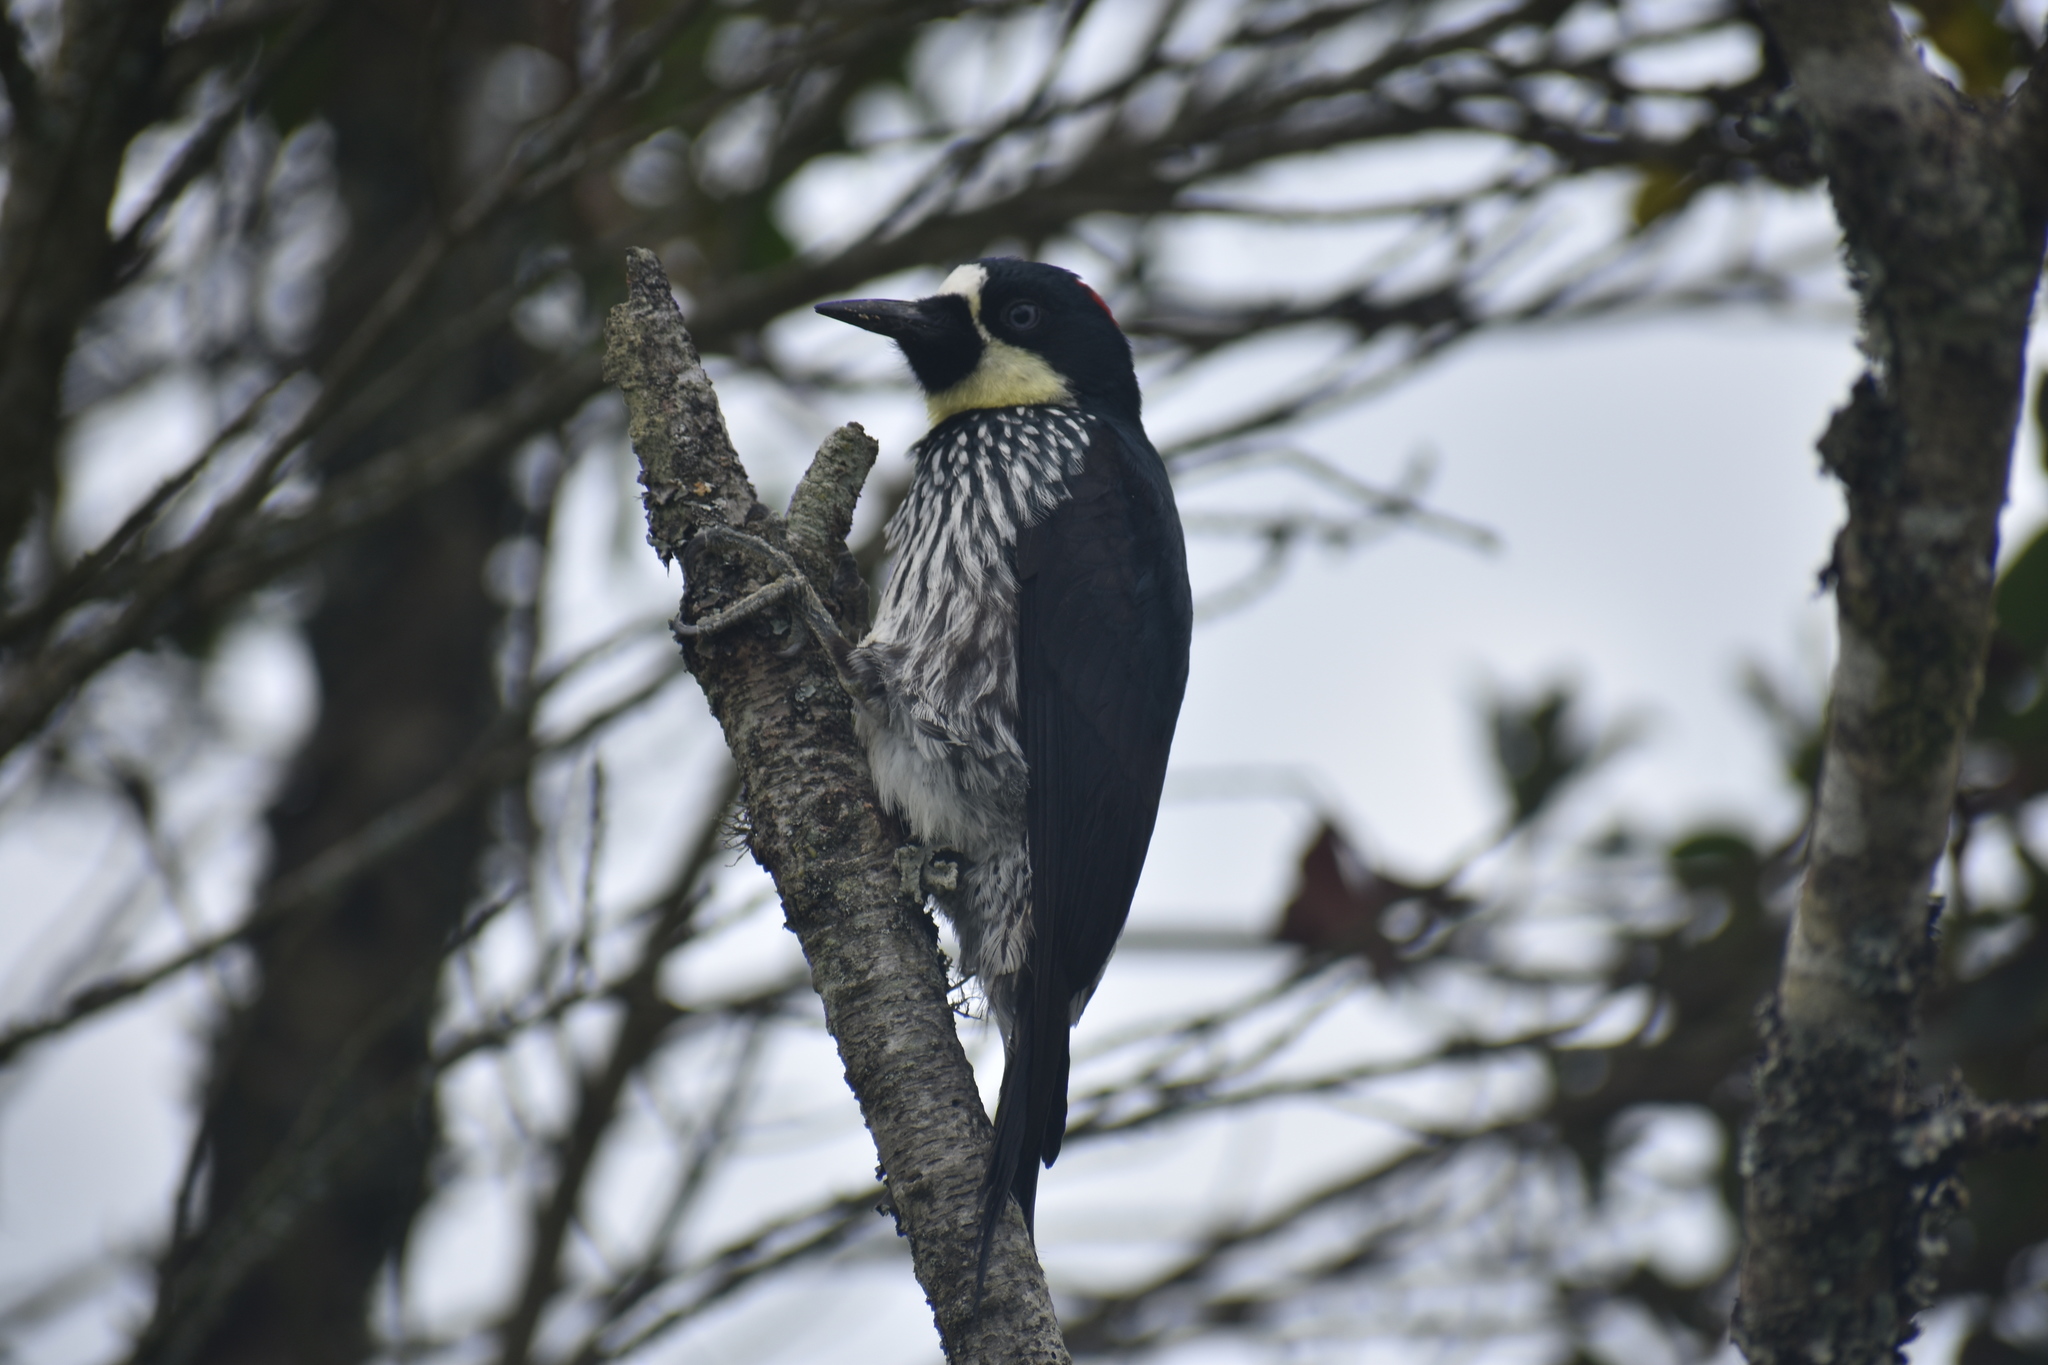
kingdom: Animalia
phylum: Chordata
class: Aves
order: Piciformes
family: Picidae
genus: Melanerpes
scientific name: Melanerpes formicivorus
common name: Acorn woodpecker
